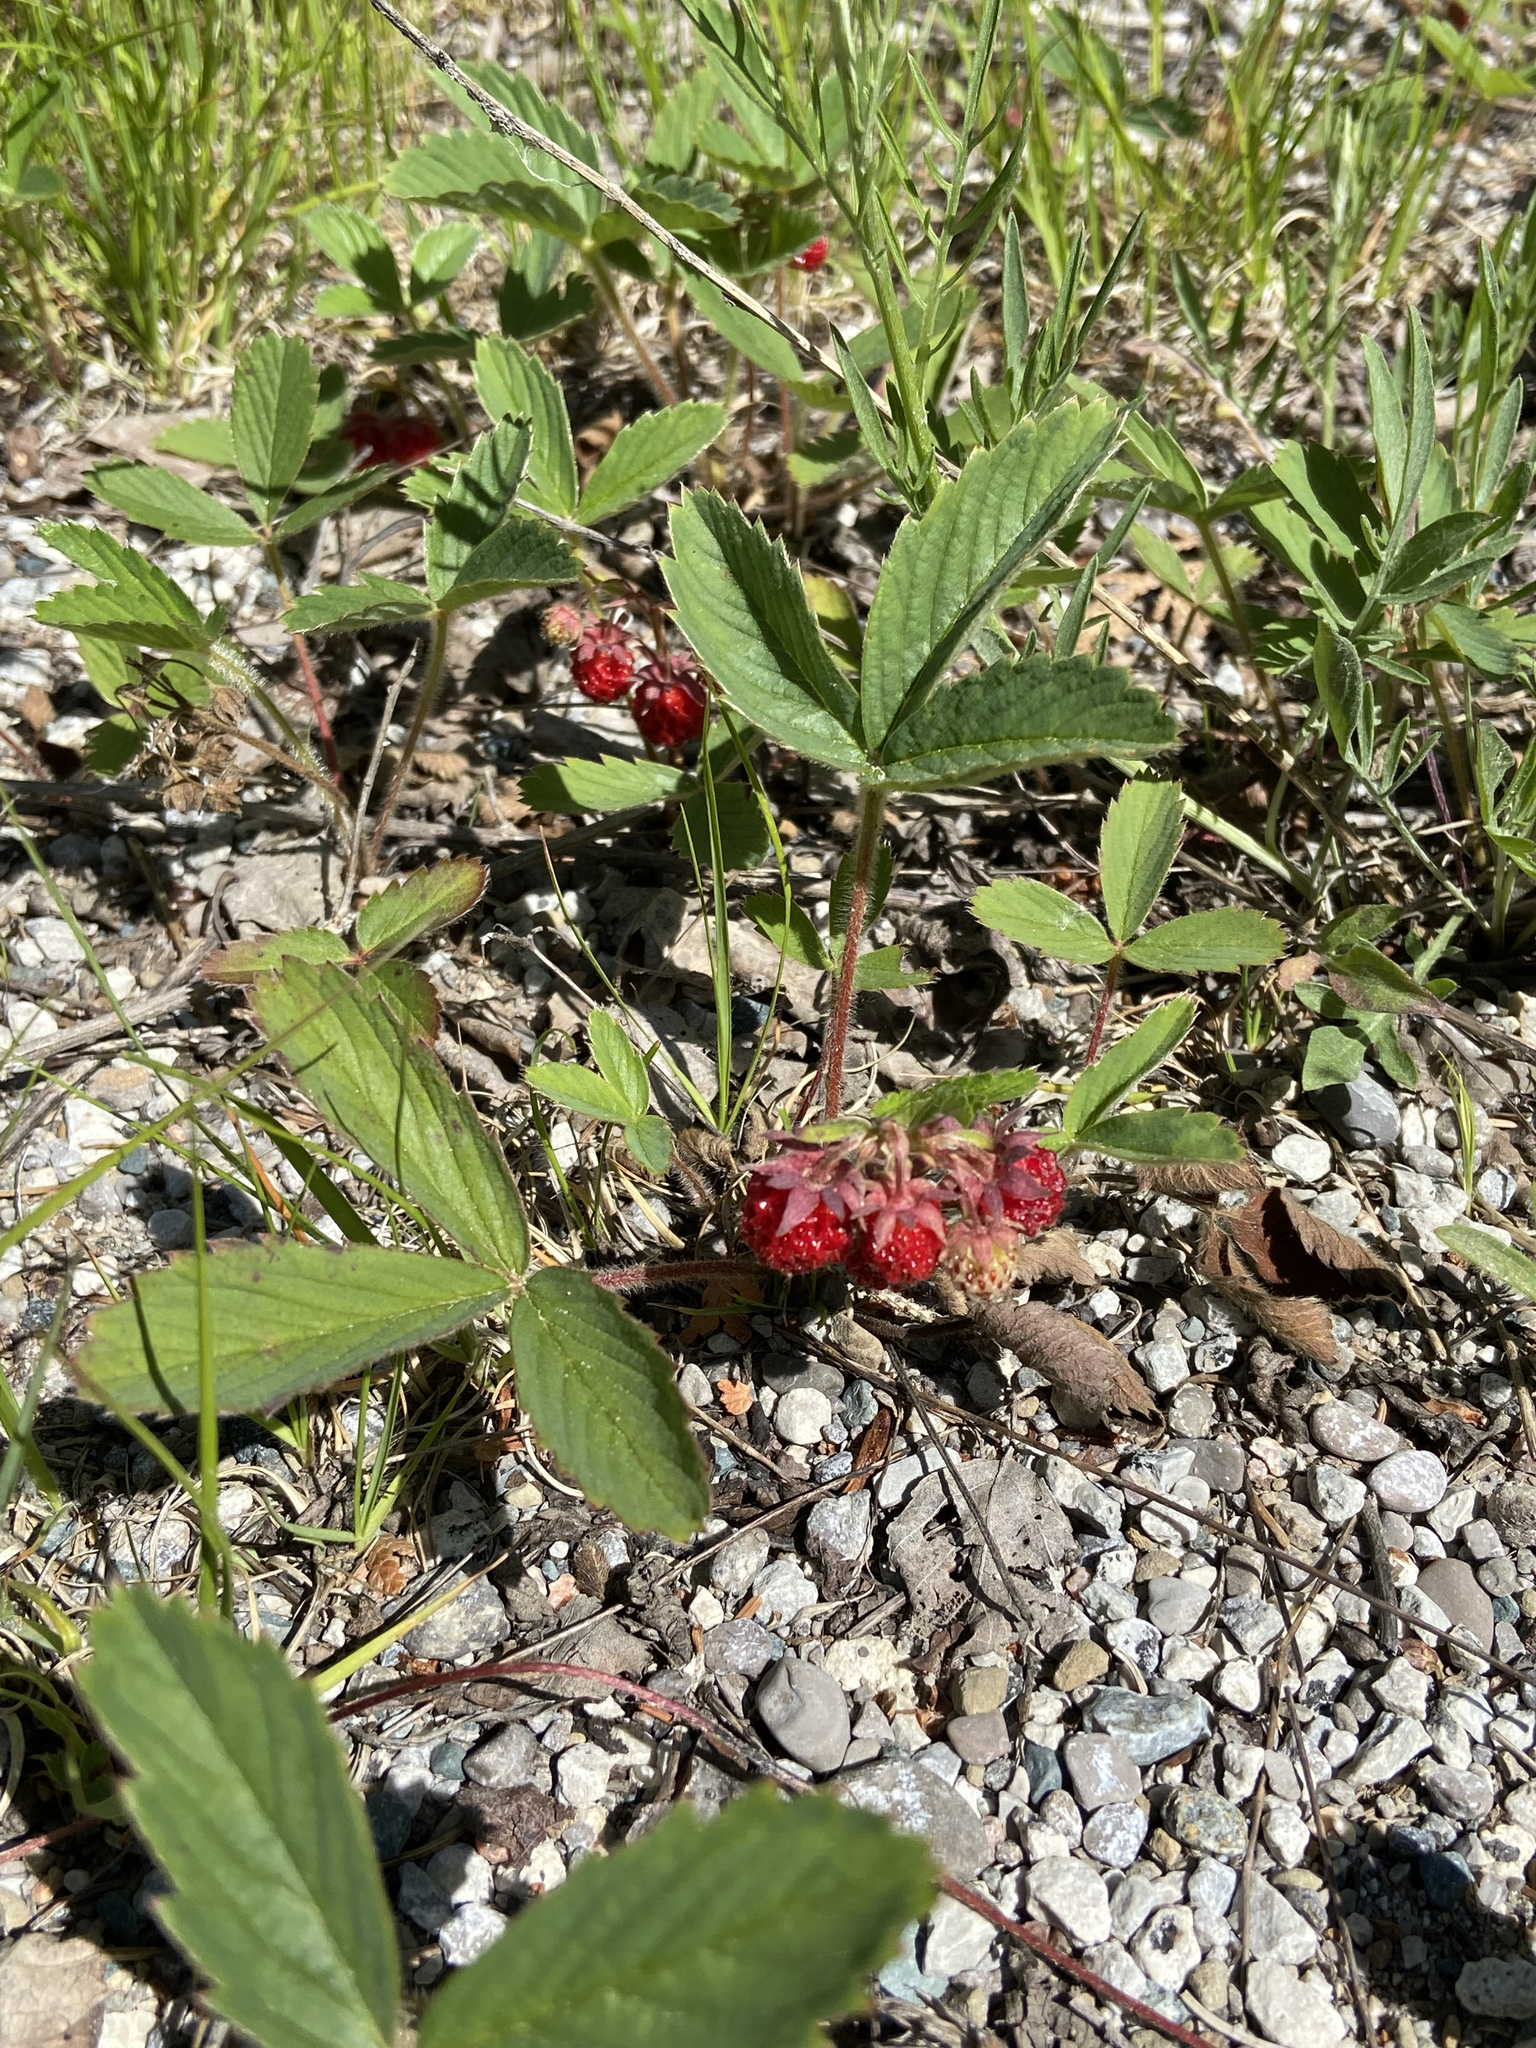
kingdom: Plantae
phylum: Tracheophyta
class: Magnoliopsida
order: Rosales
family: Rosaceae
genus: Fragaria
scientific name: Fragaria virginiana
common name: Thickleaved wild strawberry
